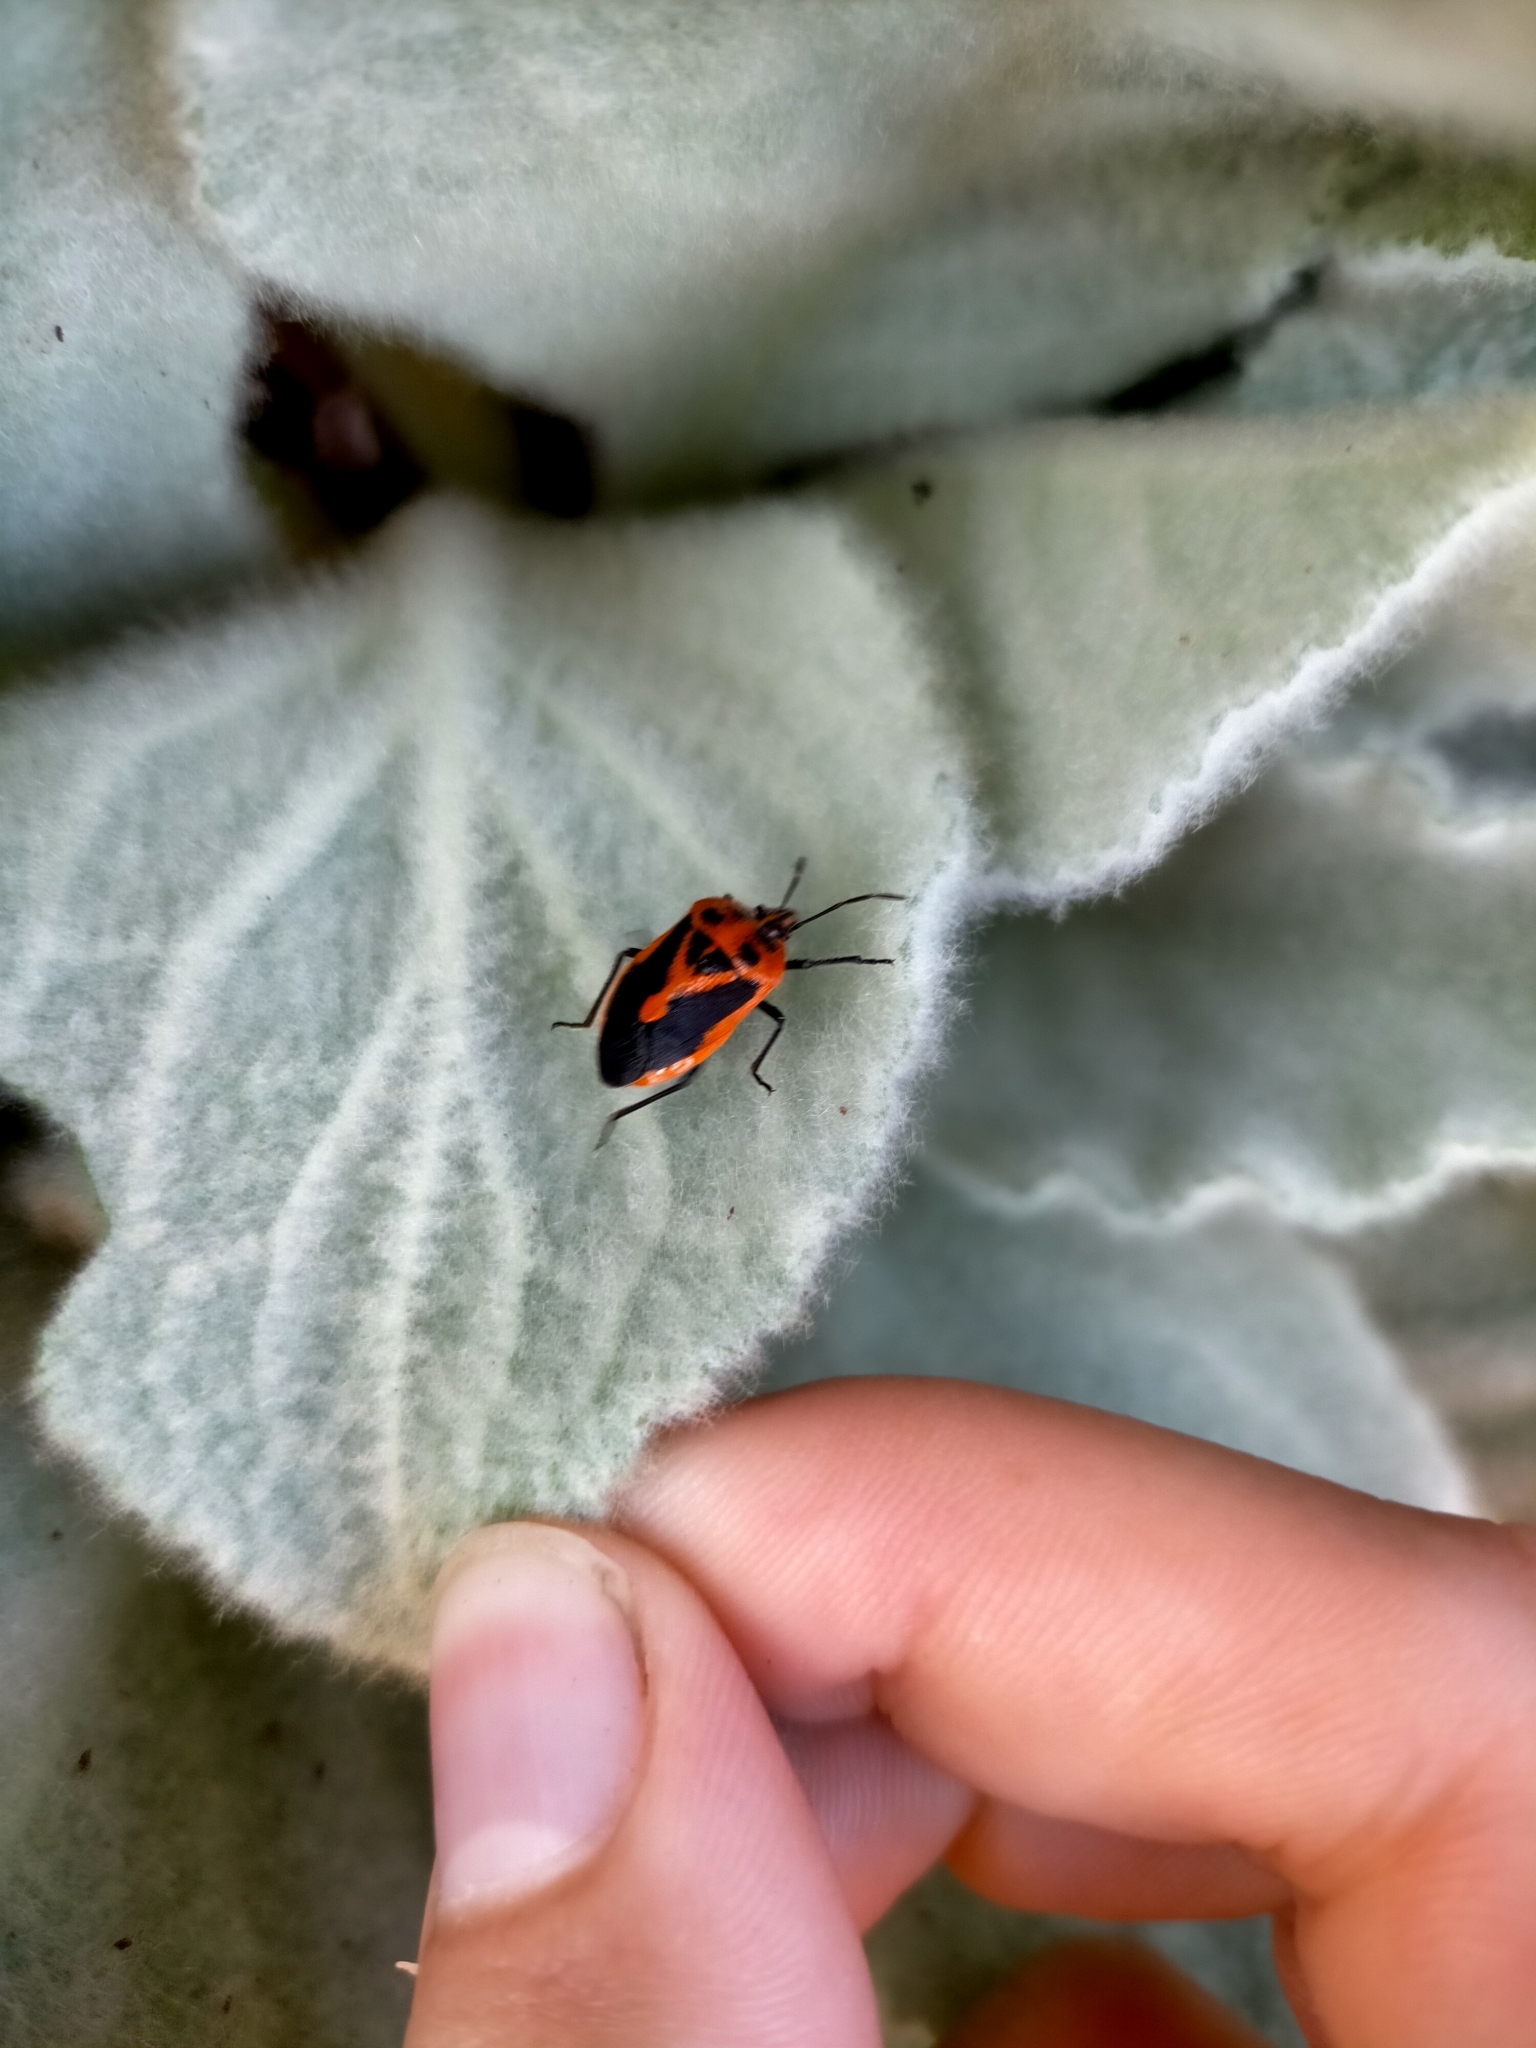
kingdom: Animalia
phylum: Arthropoda
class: Insecta
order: Hemiptera
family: Pentatomidae
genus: Agonoscelis
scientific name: Agonoscelis rutila
